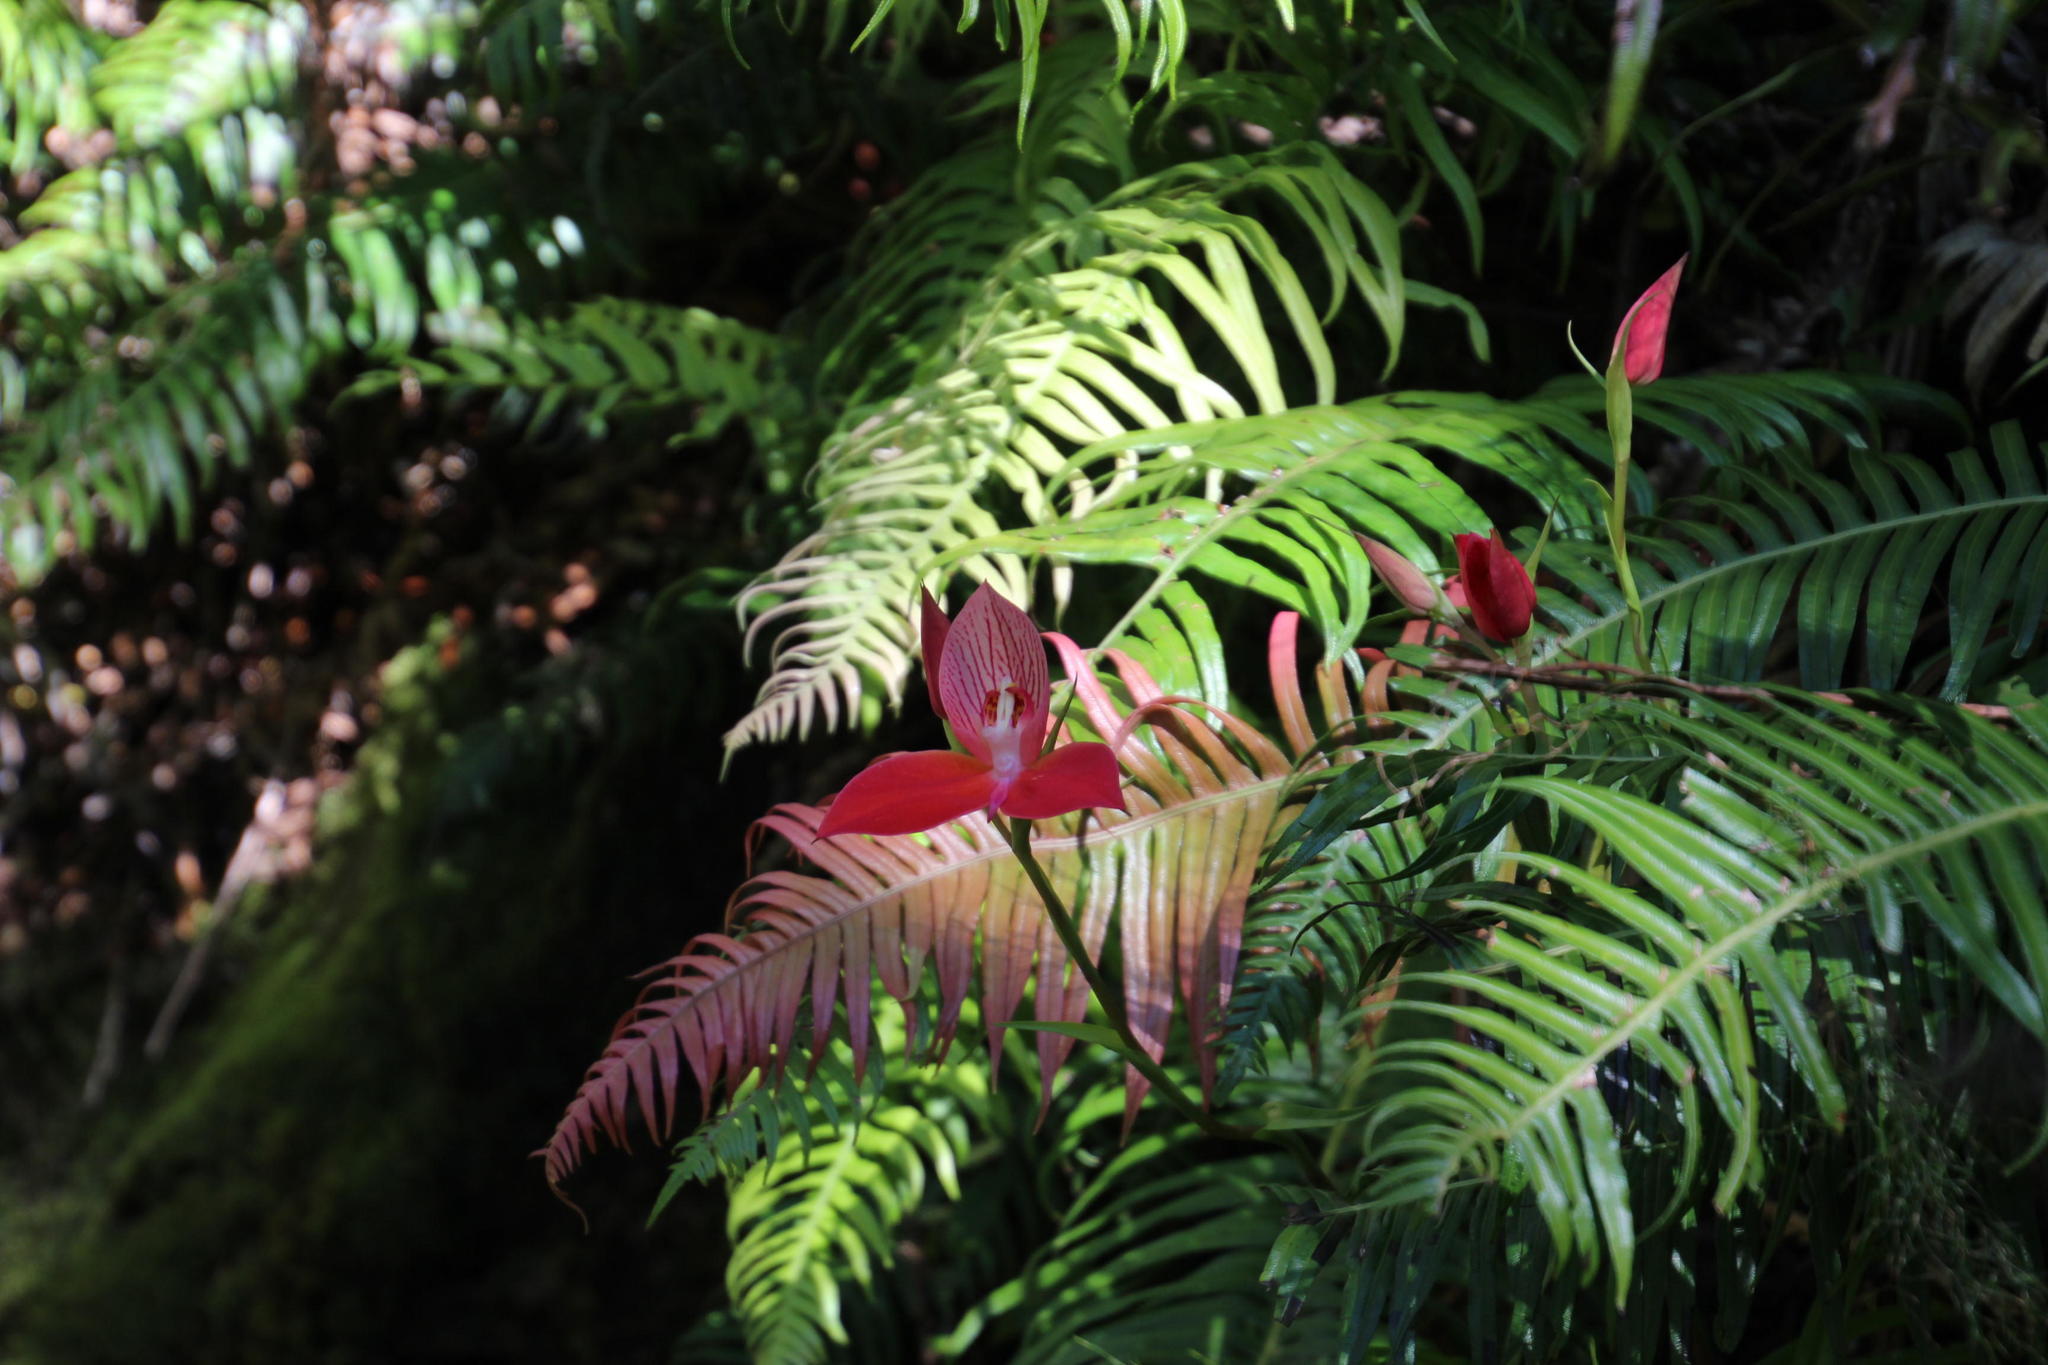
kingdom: Plantae
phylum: Tracheophyta
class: Liliopsida
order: Asparagales
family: Orchidaceae
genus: Disa
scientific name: Disa uniflora
